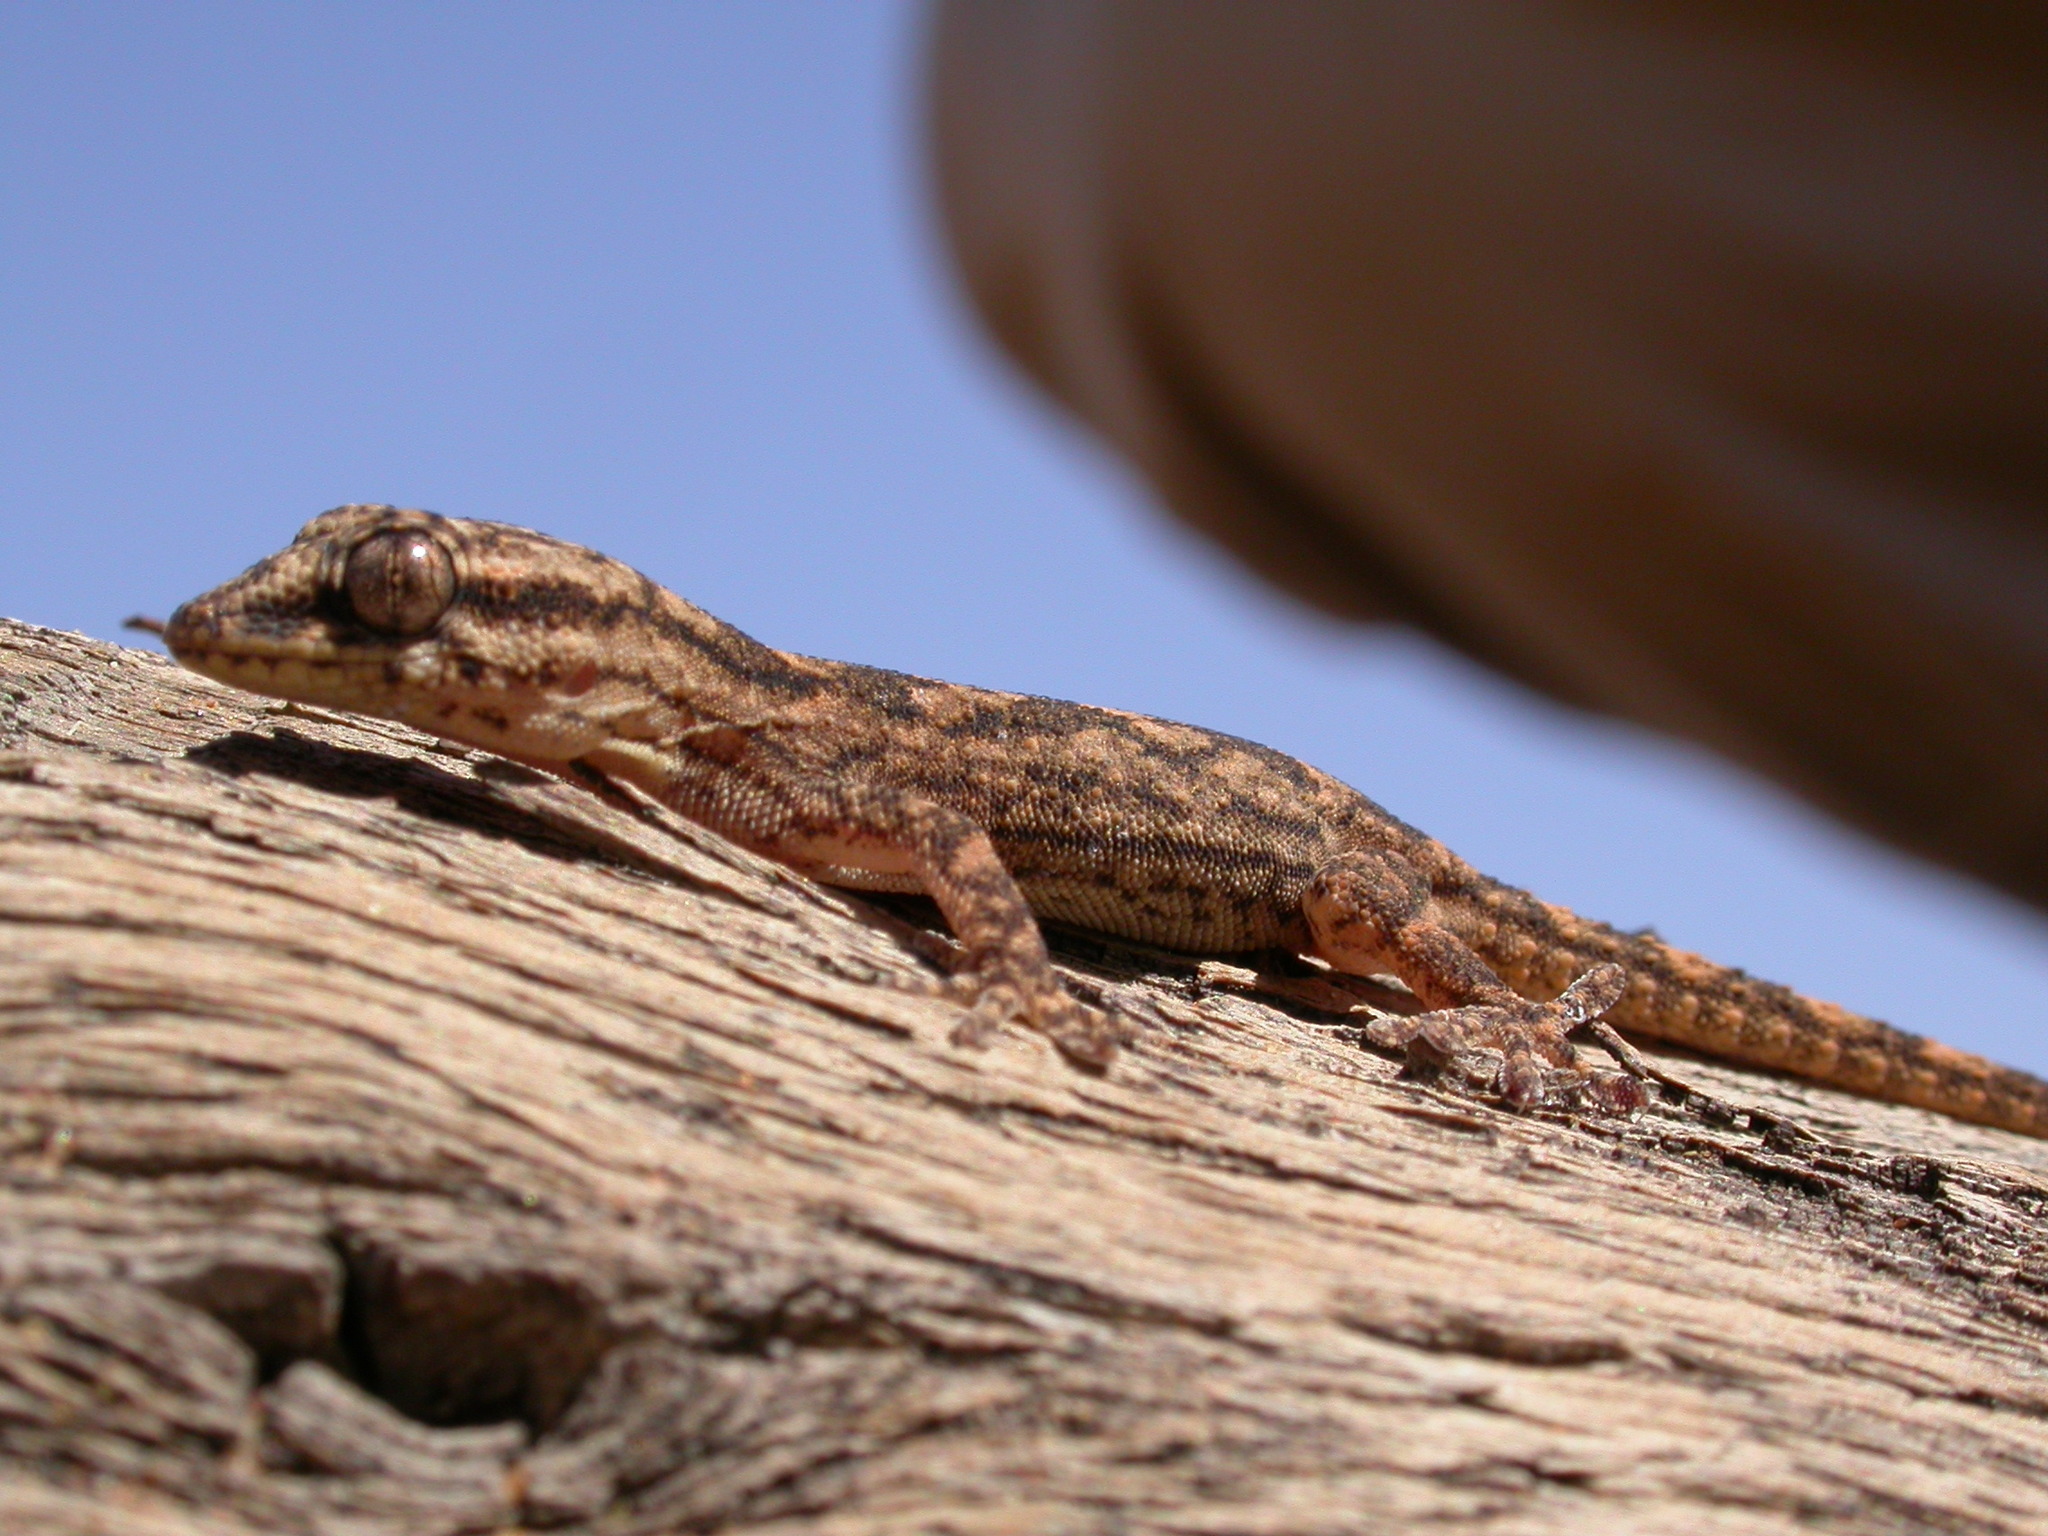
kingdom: Animalia
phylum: Chordata
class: Squamata
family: Phyllodactylidae
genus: Tarentola
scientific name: Tarentola hoggarensis
